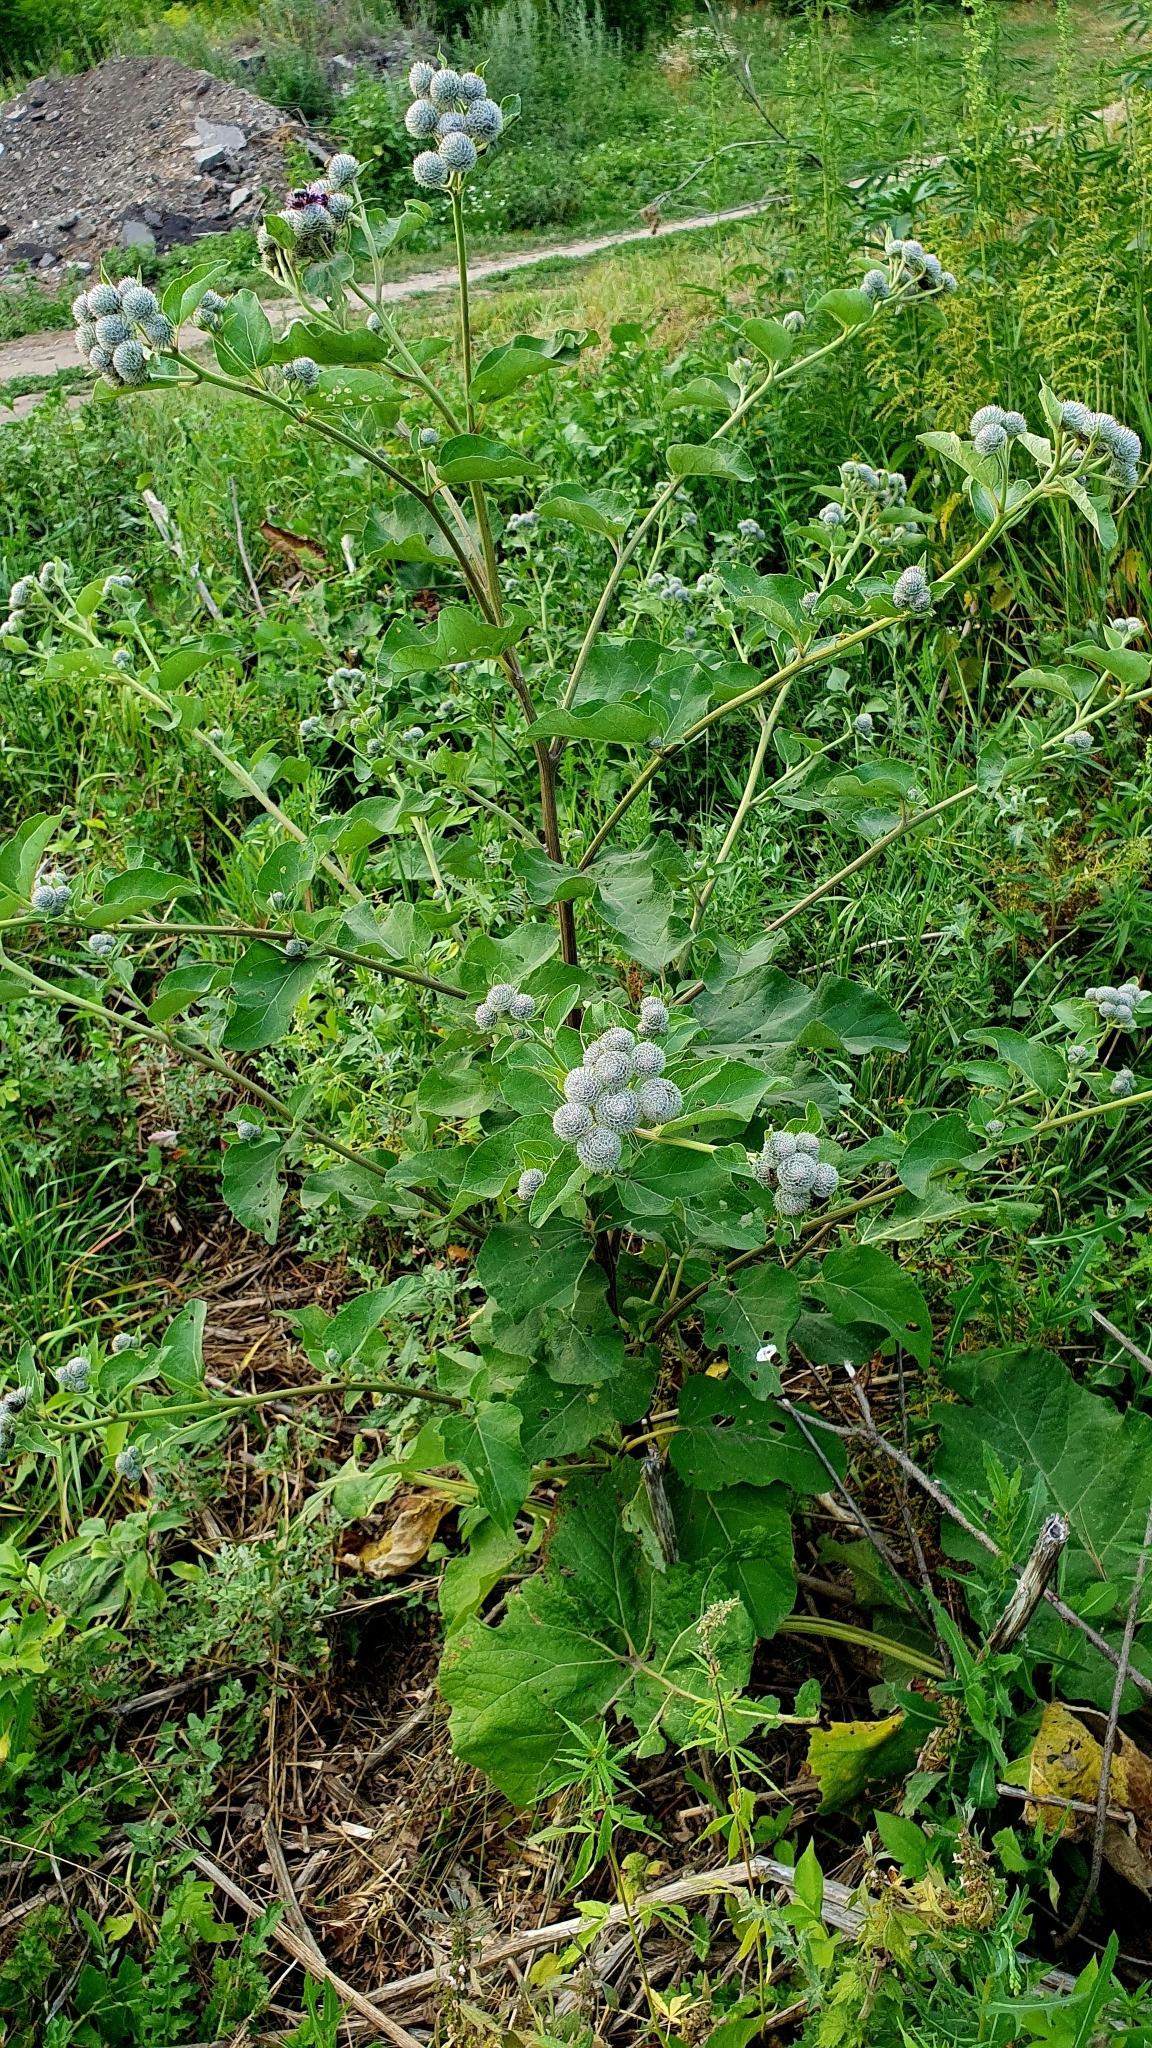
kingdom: Plantae
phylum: Tracheophyta
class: Magnoliopsida
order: Asterales
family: Asteraceae
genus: Arctium
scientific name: Arctium tomentosum
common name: Woolly burdock
